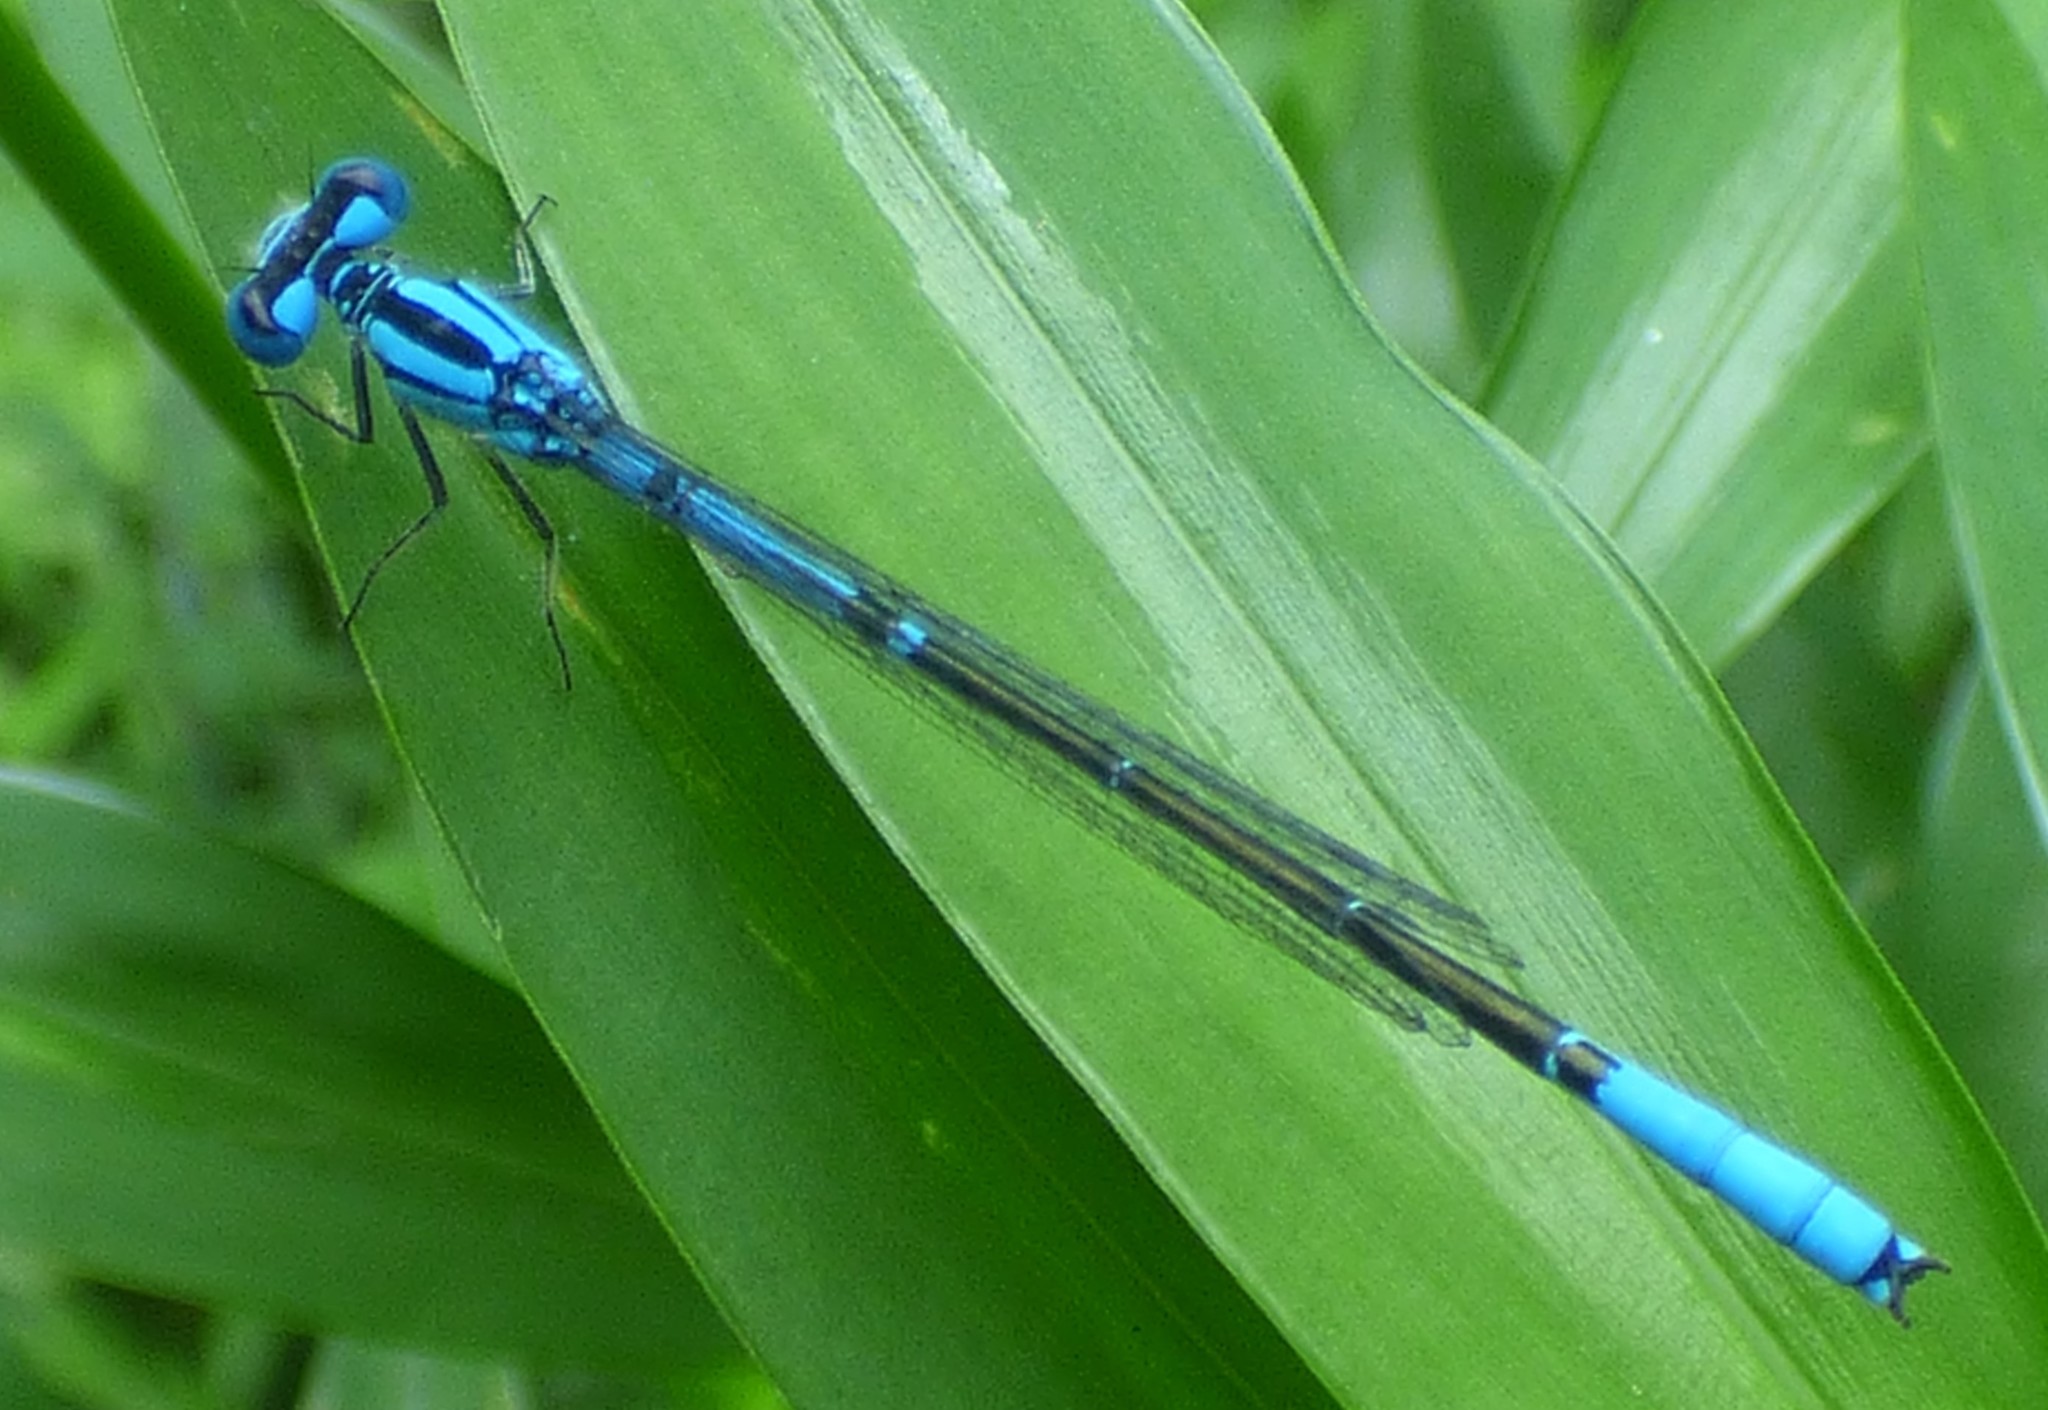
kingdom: Animalia
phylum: Arthropoda
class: Insecta
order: Odonata
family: Coenagrionidae
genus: Enallagma
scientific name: Enallagma aspersum
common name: Azure bluet
